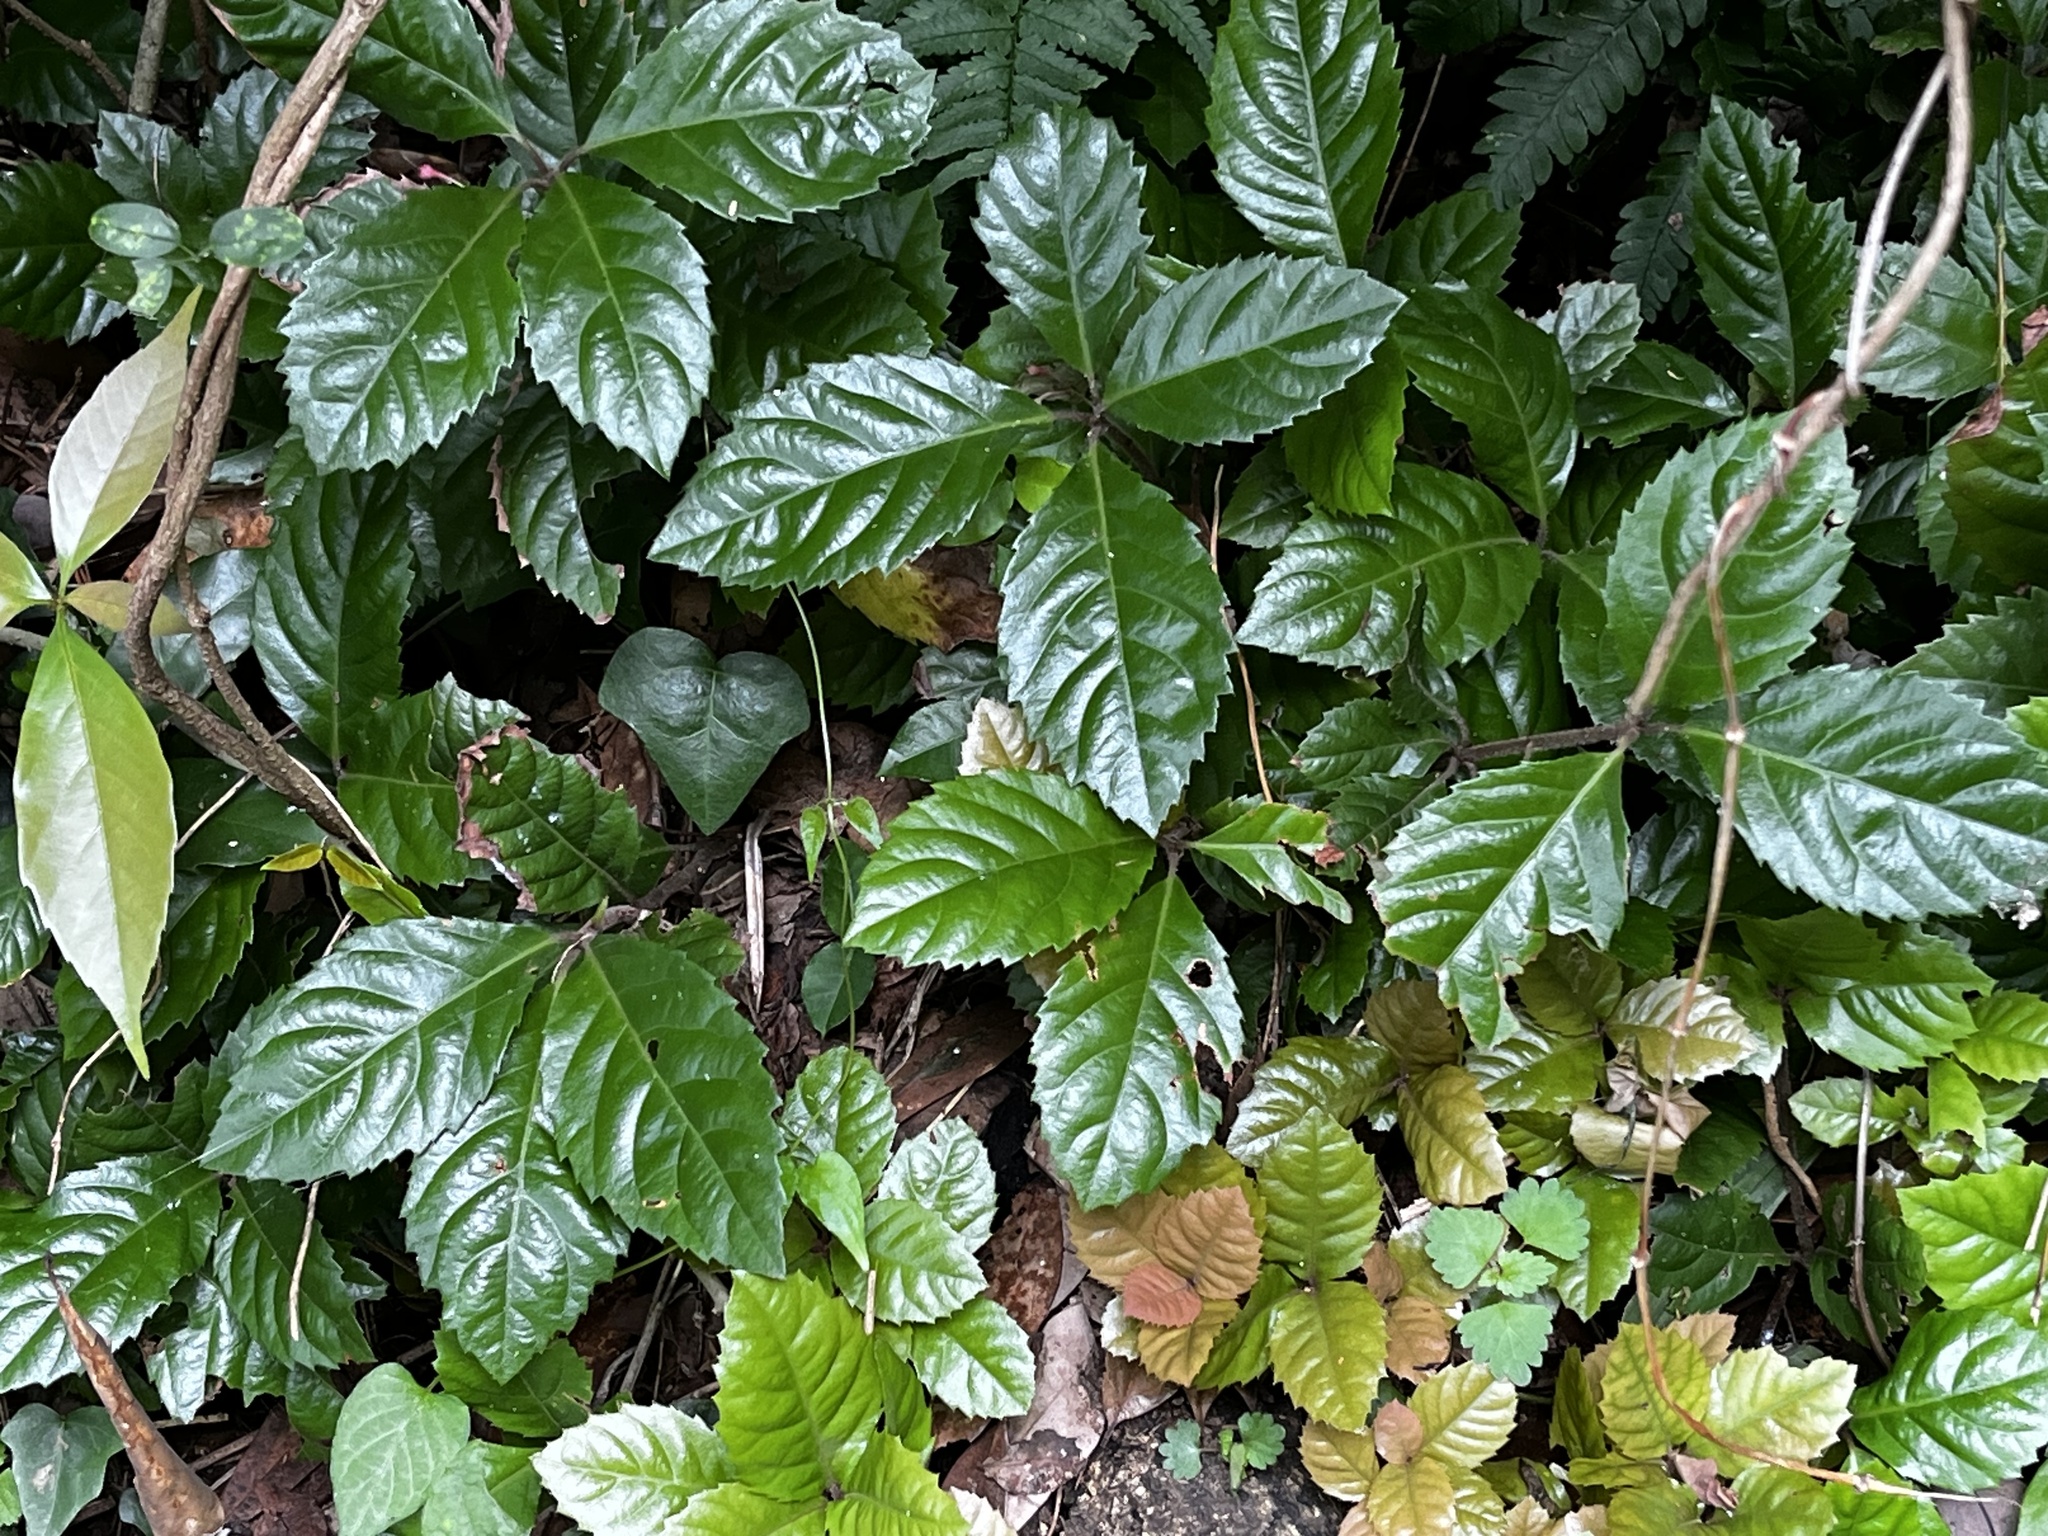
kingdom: Plantae
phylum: Tracheophyta
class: Magnoliopsida
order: Ericales
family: Primulaceae
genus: Ardisia
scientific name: Ardisia japonica
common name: Marlberry
